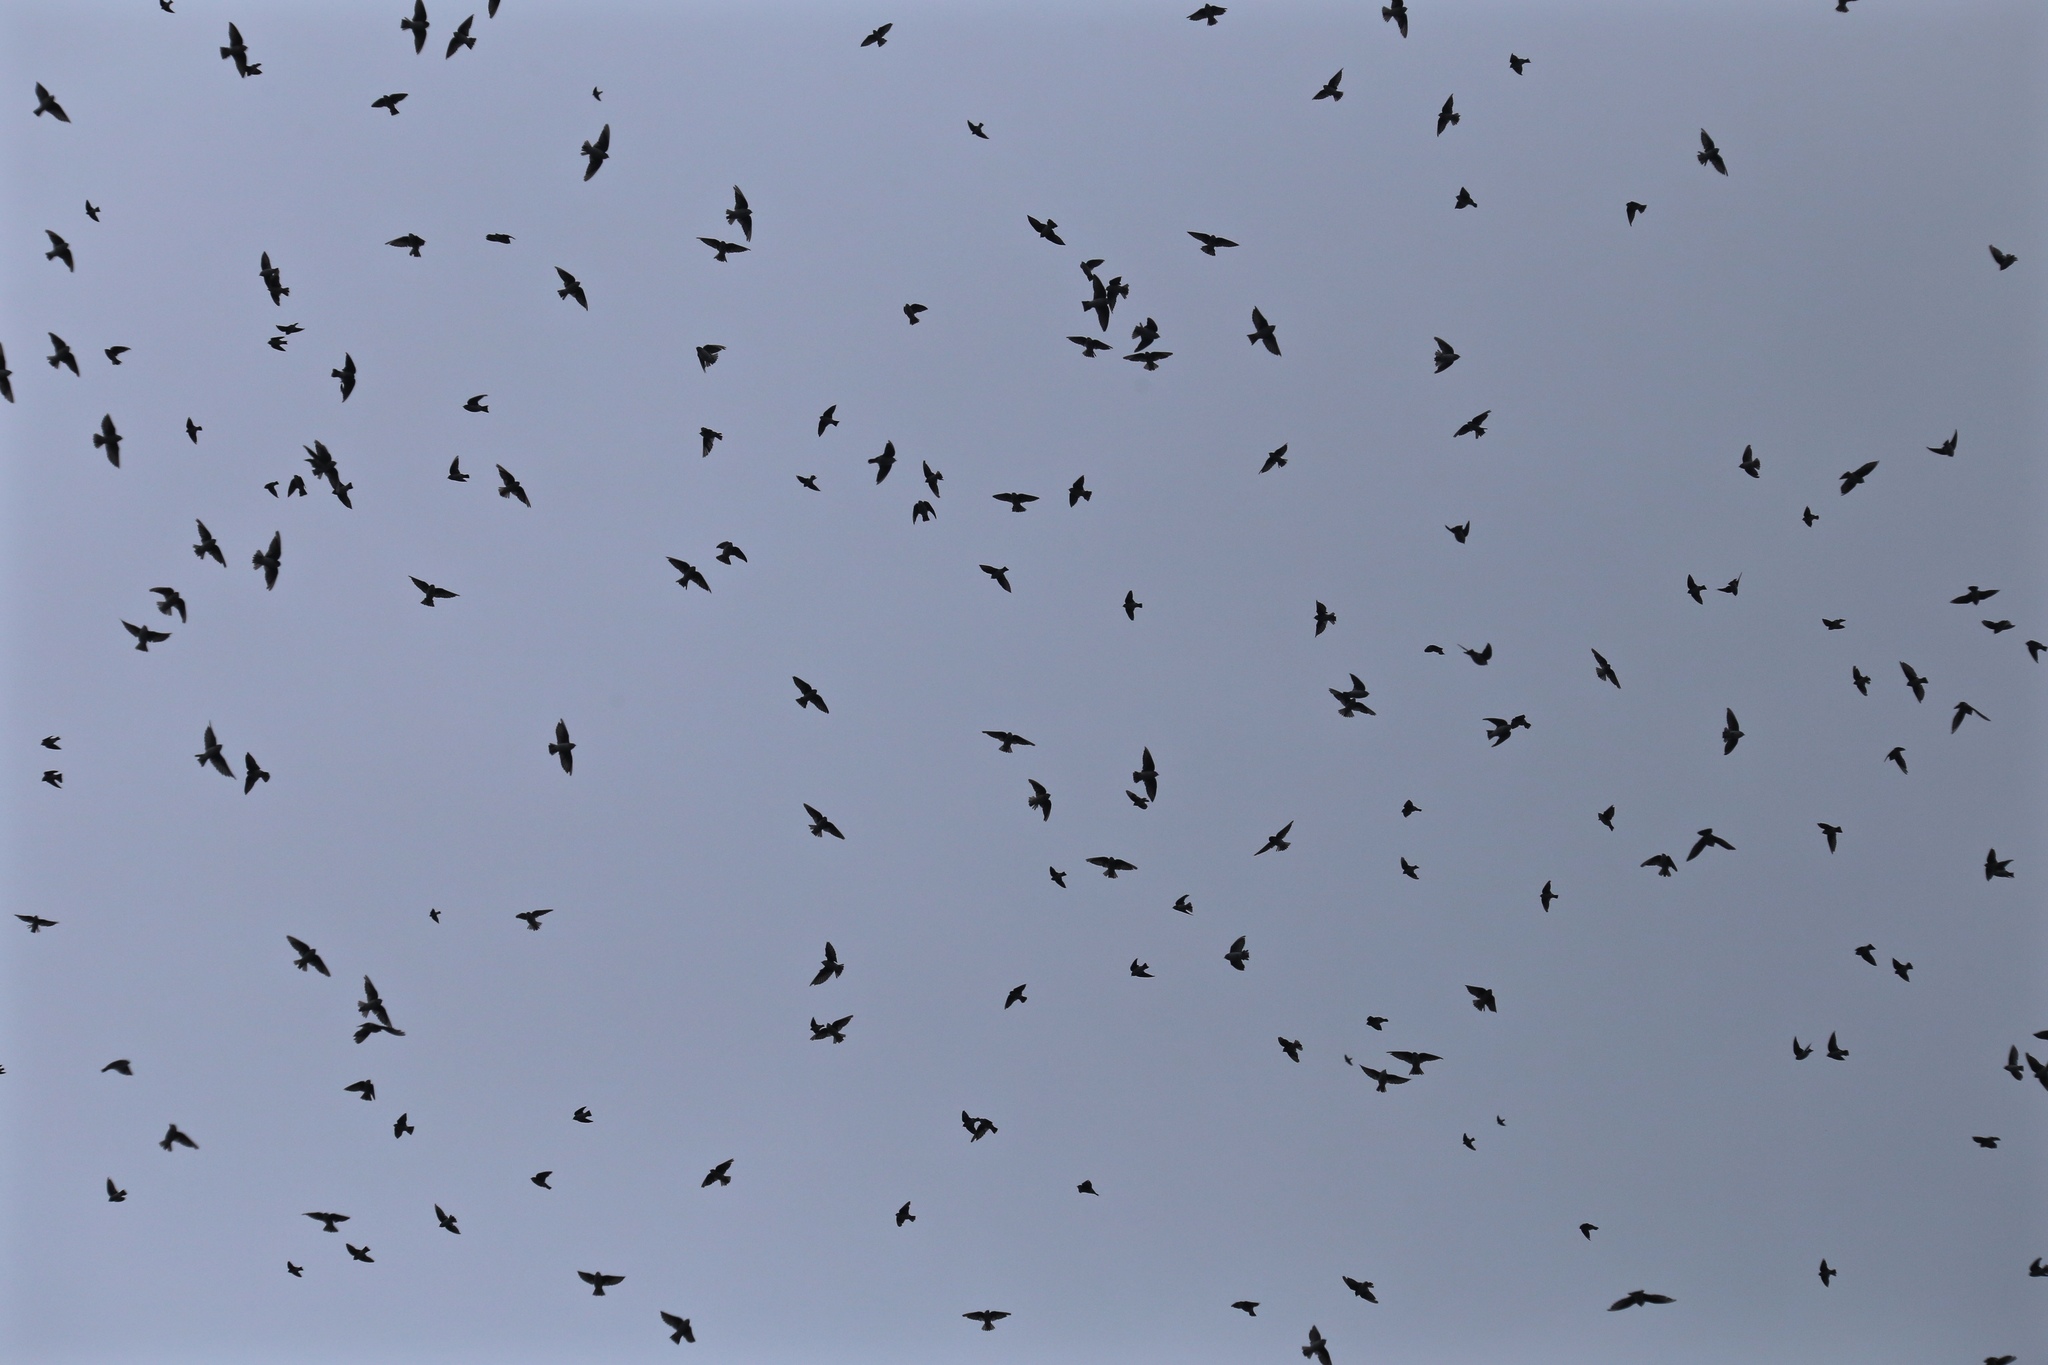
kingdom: Animalia
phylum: Chordata
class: Aves
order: Passeriformes
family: Hirundinidae
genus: Tachycineta
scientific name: Tachycineta bicolor
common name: Tree swallow
